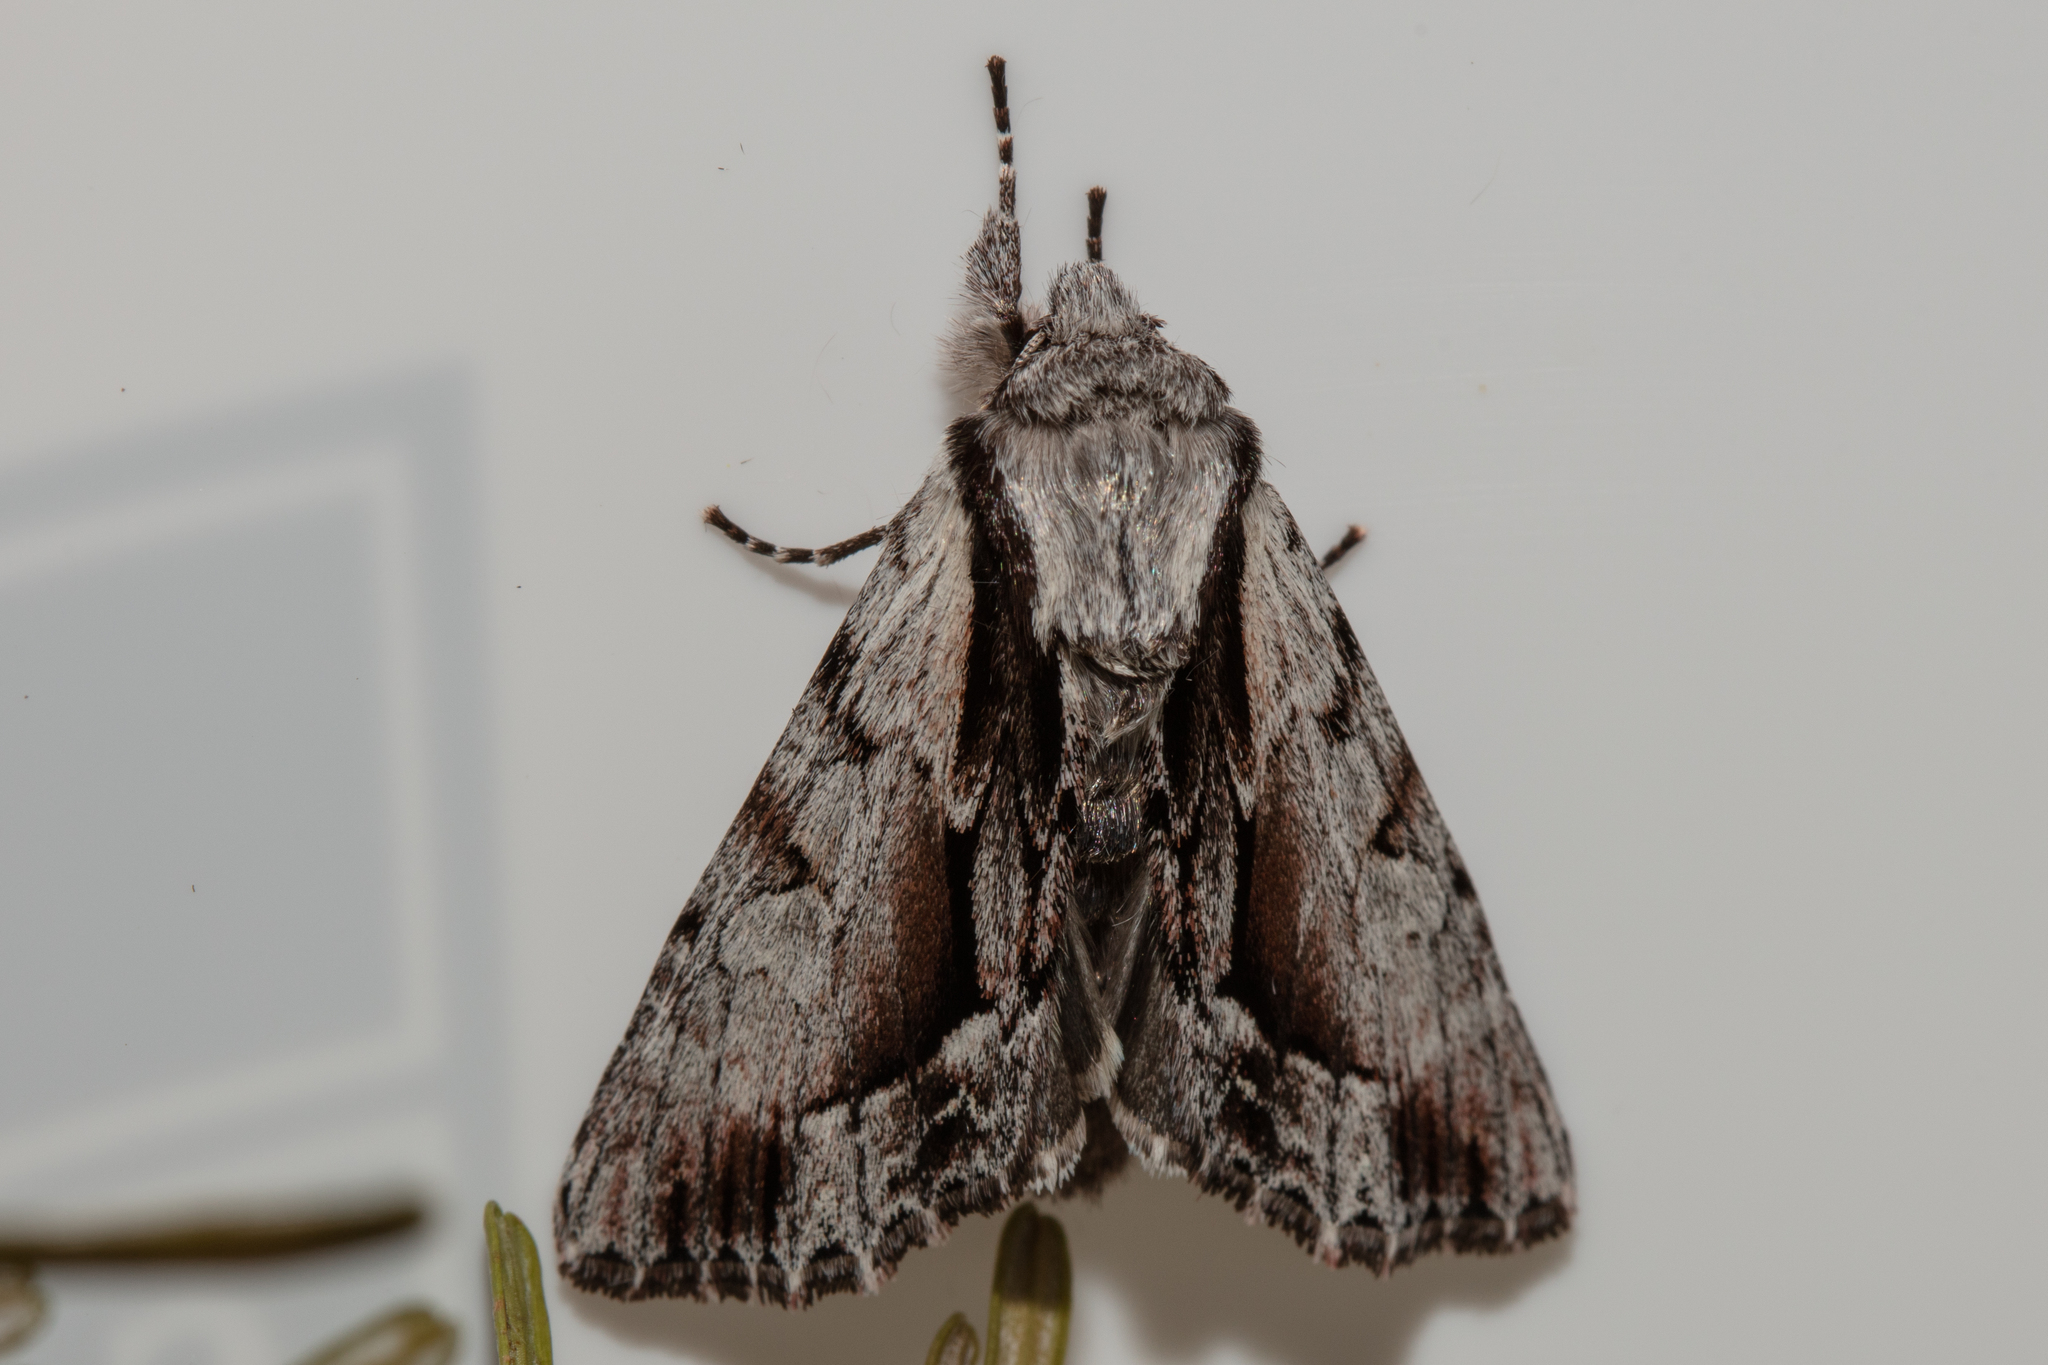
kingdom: Animalia
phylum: Arthropoda
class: Insecta
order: Lepidoptera
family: Noctuidae
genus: Hyppa
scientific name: Hyppa contrasta
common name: Summer hyppa moth
